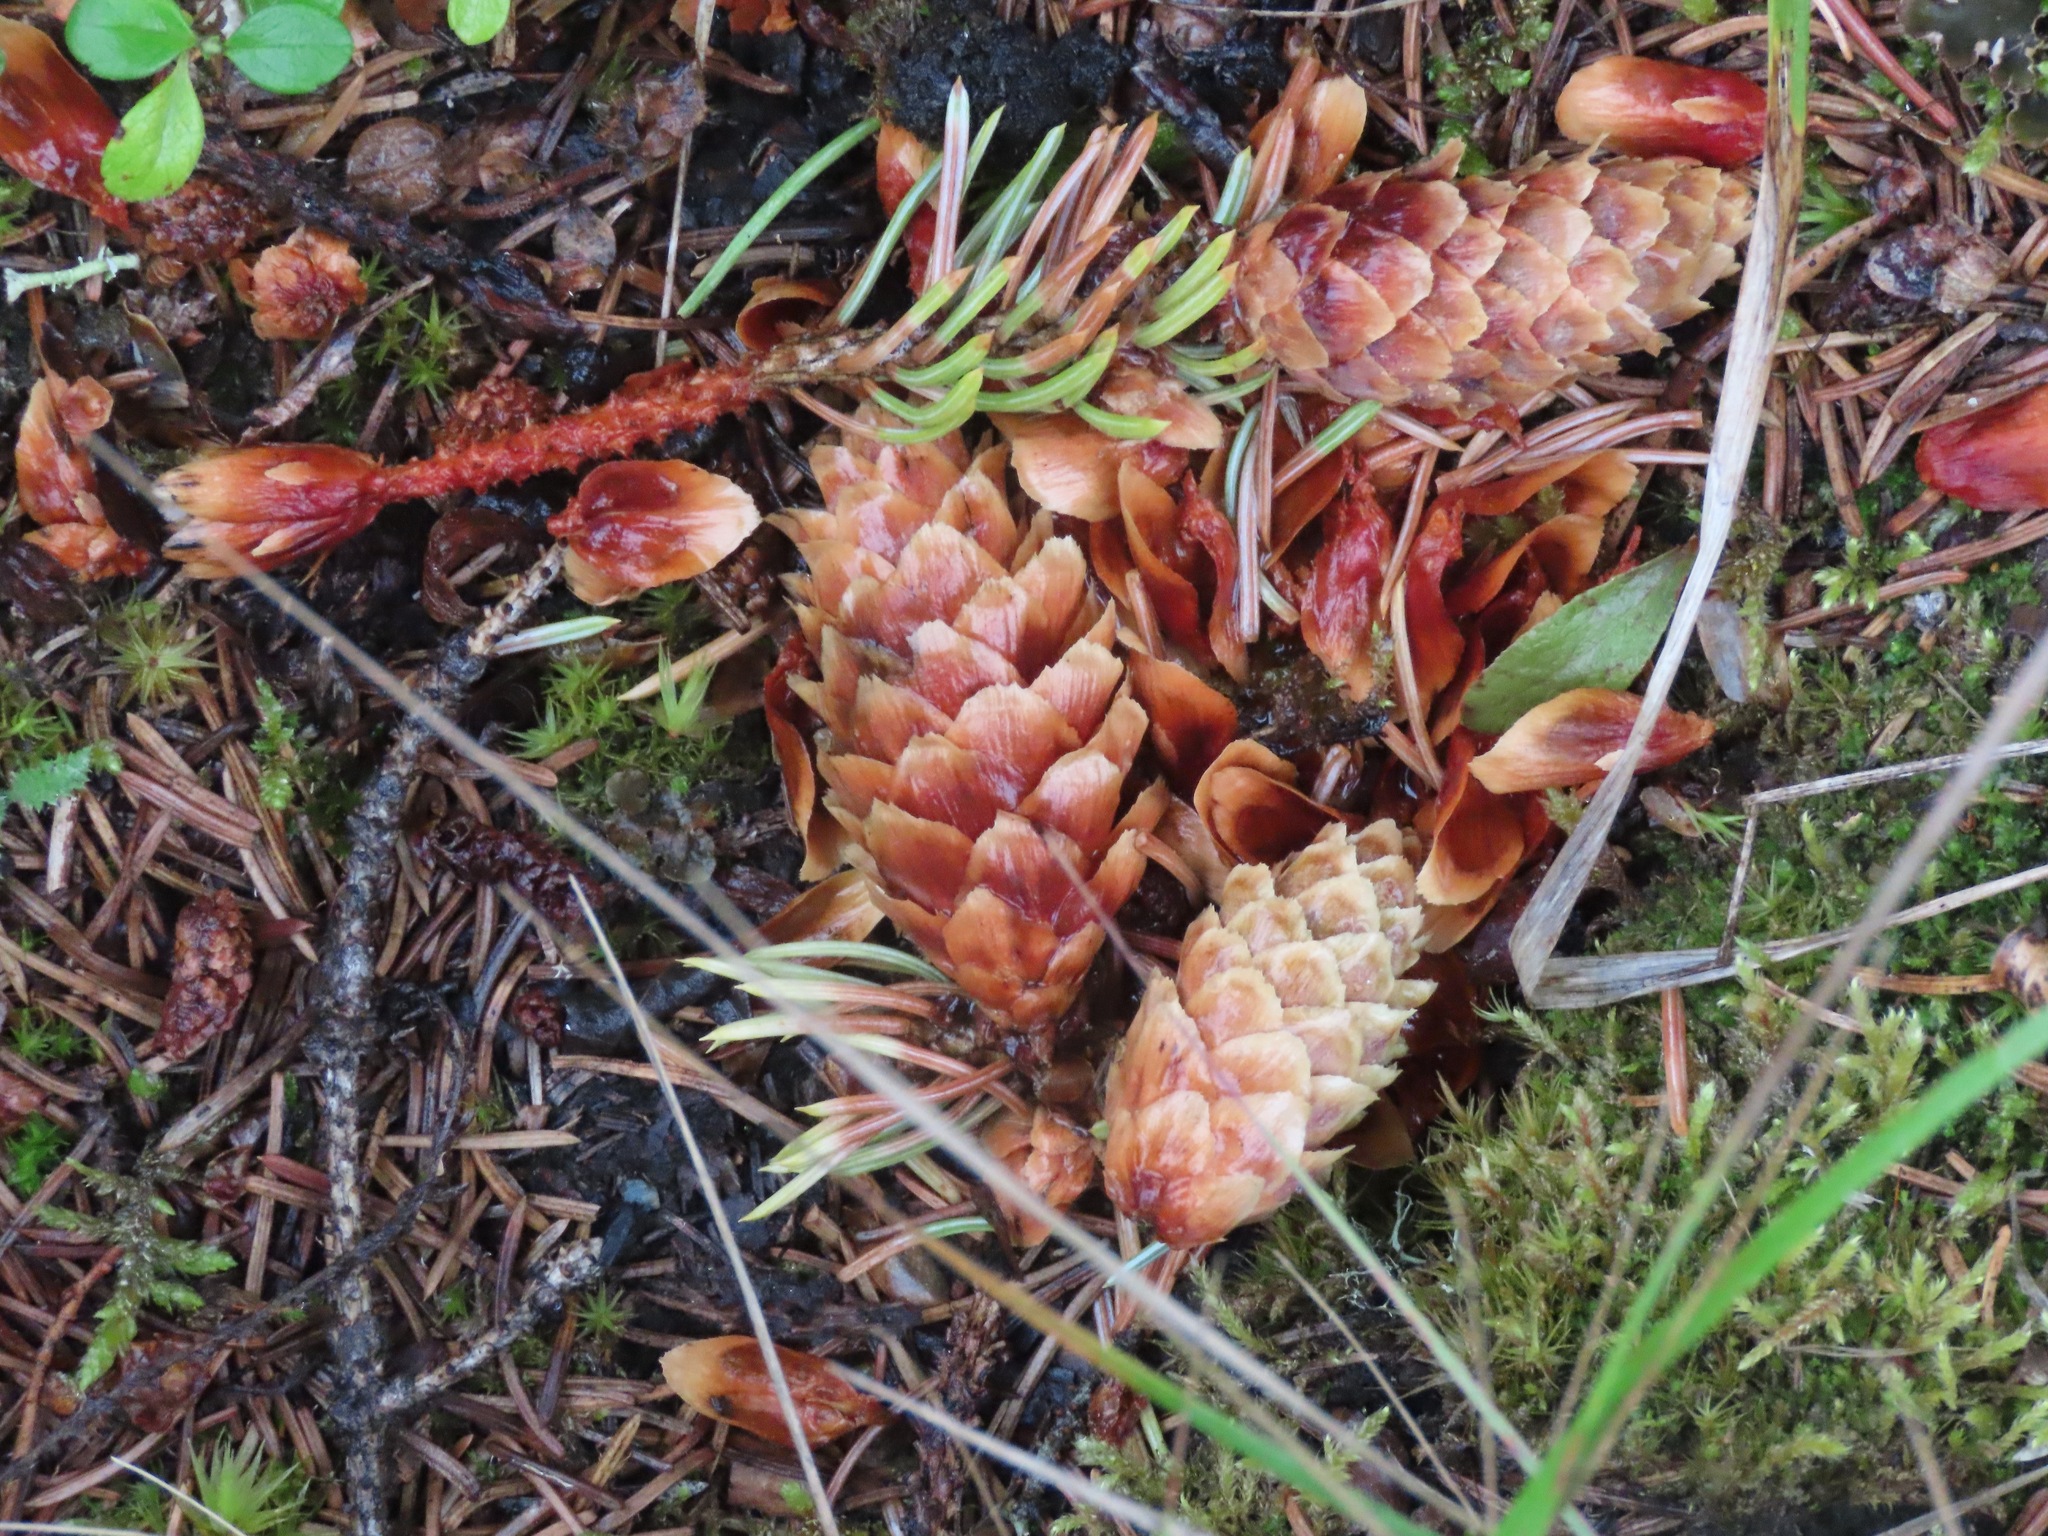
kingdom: Plantae
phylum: Tracheophyta
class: Pinopsida
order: Pinales
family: Pinaceae
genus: Picea
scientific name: Picea engelmannii
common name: Engelmann spruce
